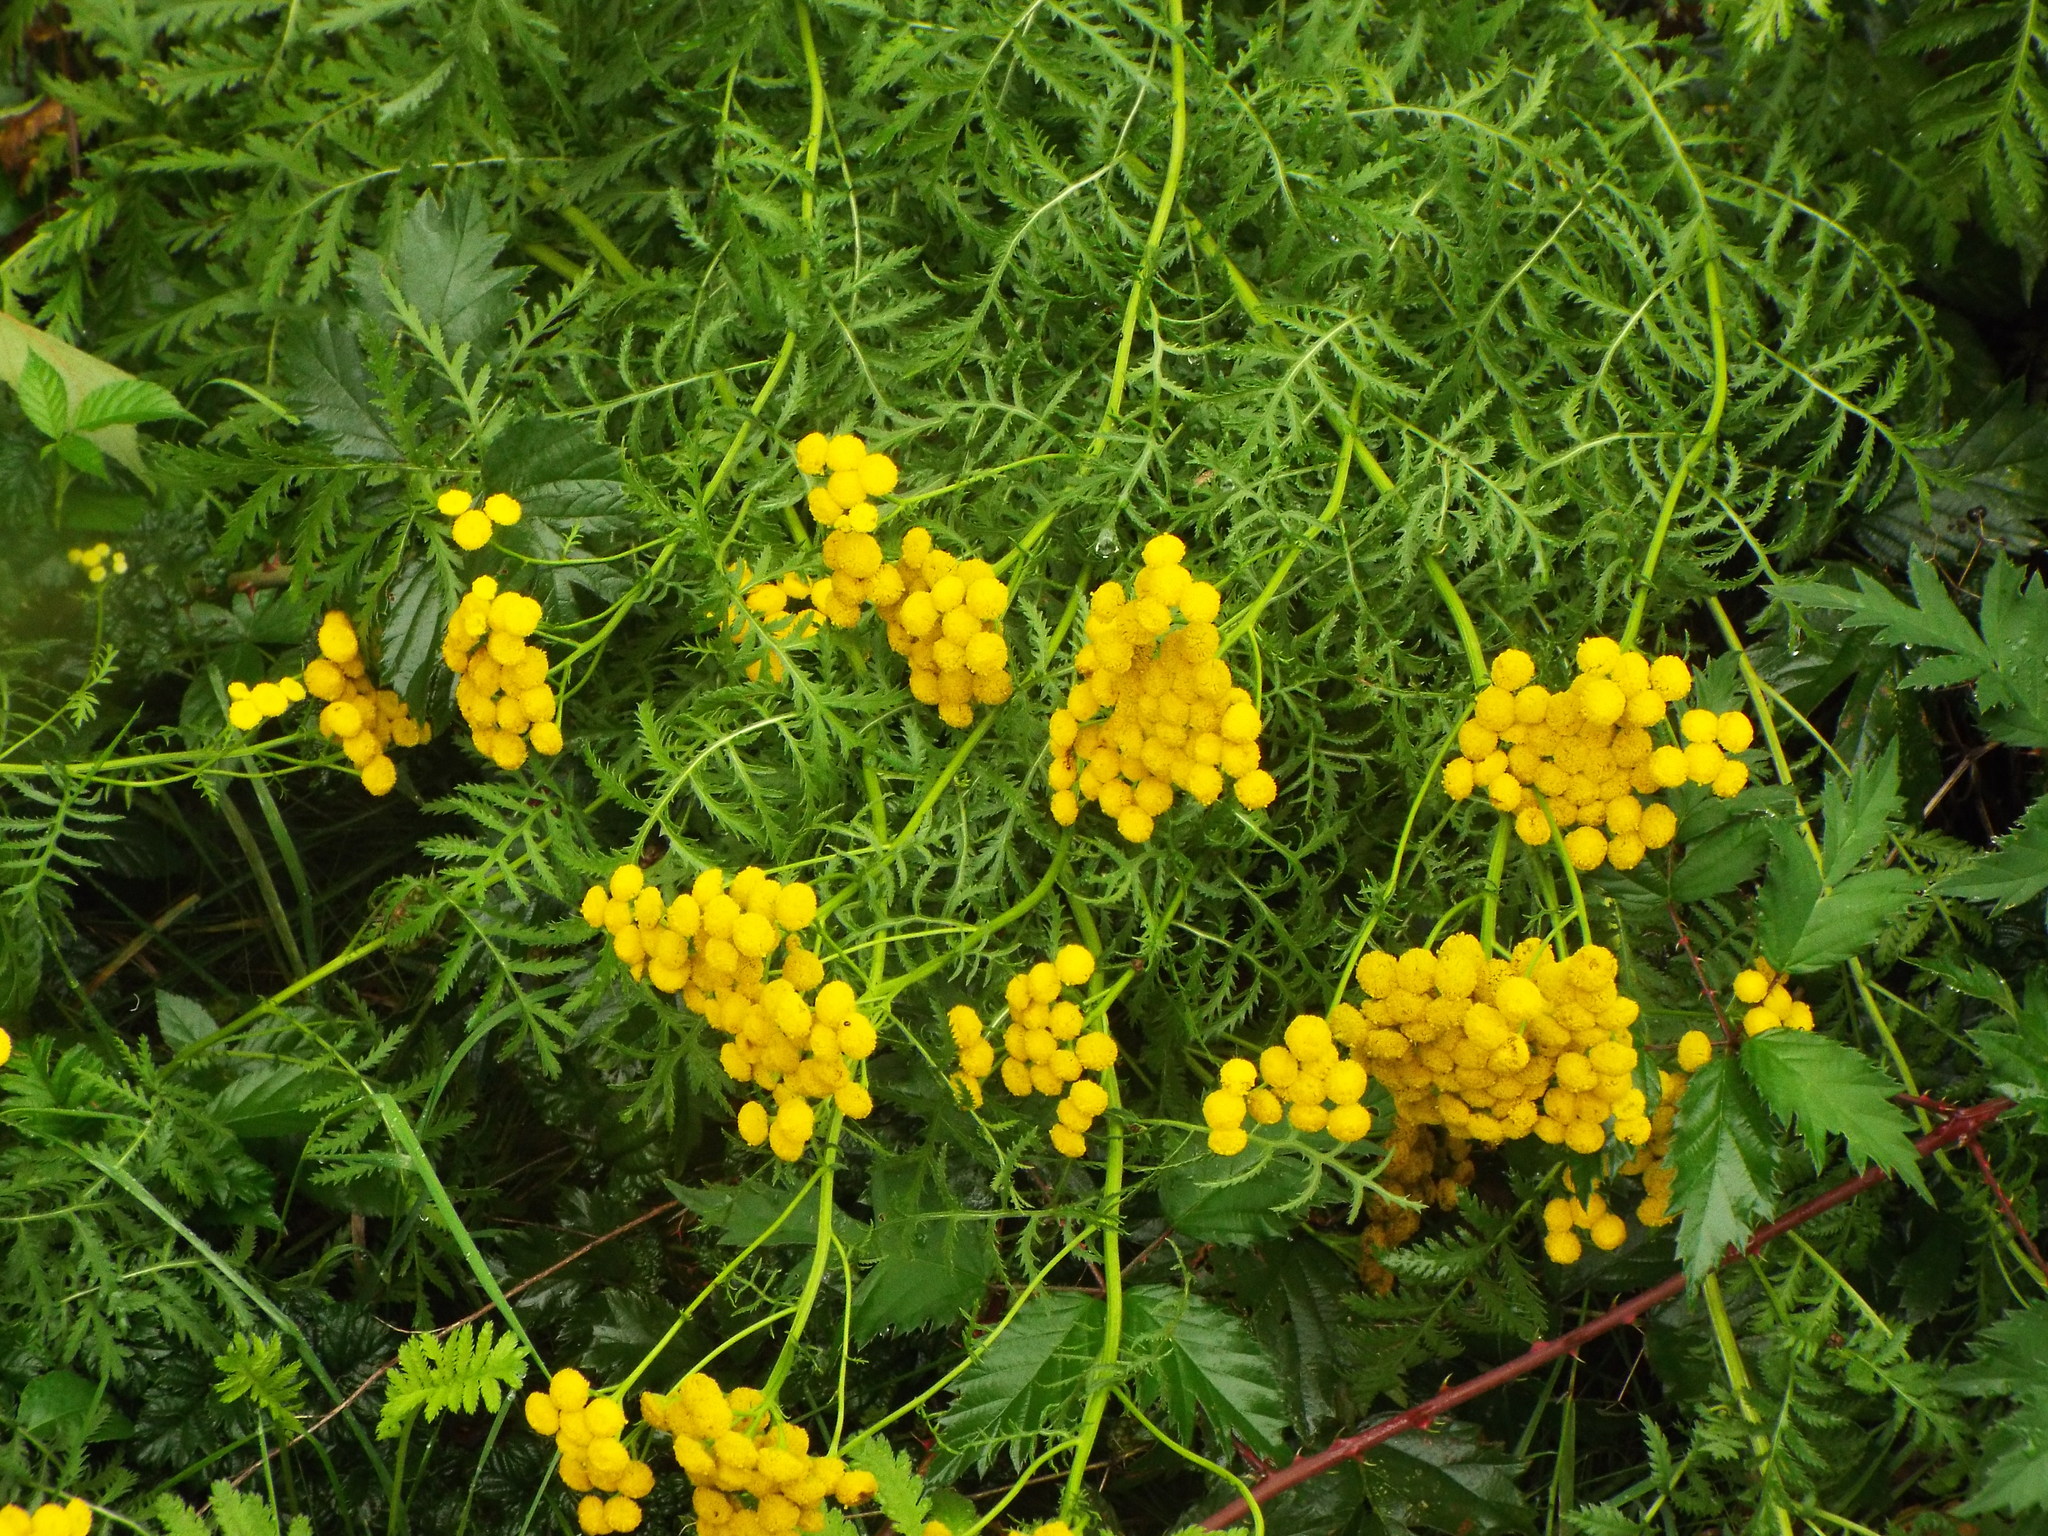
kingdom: Plantae
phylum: Tracheophyta
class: Magnoliopsida
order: Asterales
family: Asteraceae
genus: Tanacetum
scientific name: Tanacetum vulgare
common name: Common tansy
